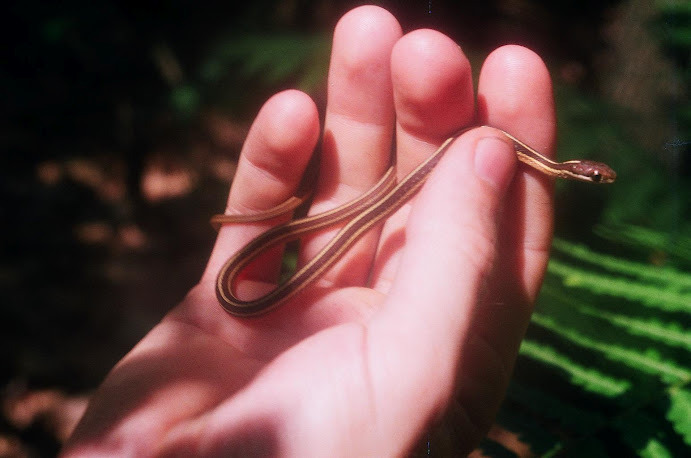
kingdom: Animalia
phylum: Chordata
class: Squamata
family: Colubridae
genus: Thamnophis
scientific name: Thamnophis saurita
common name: Eastern ribbonsnake
